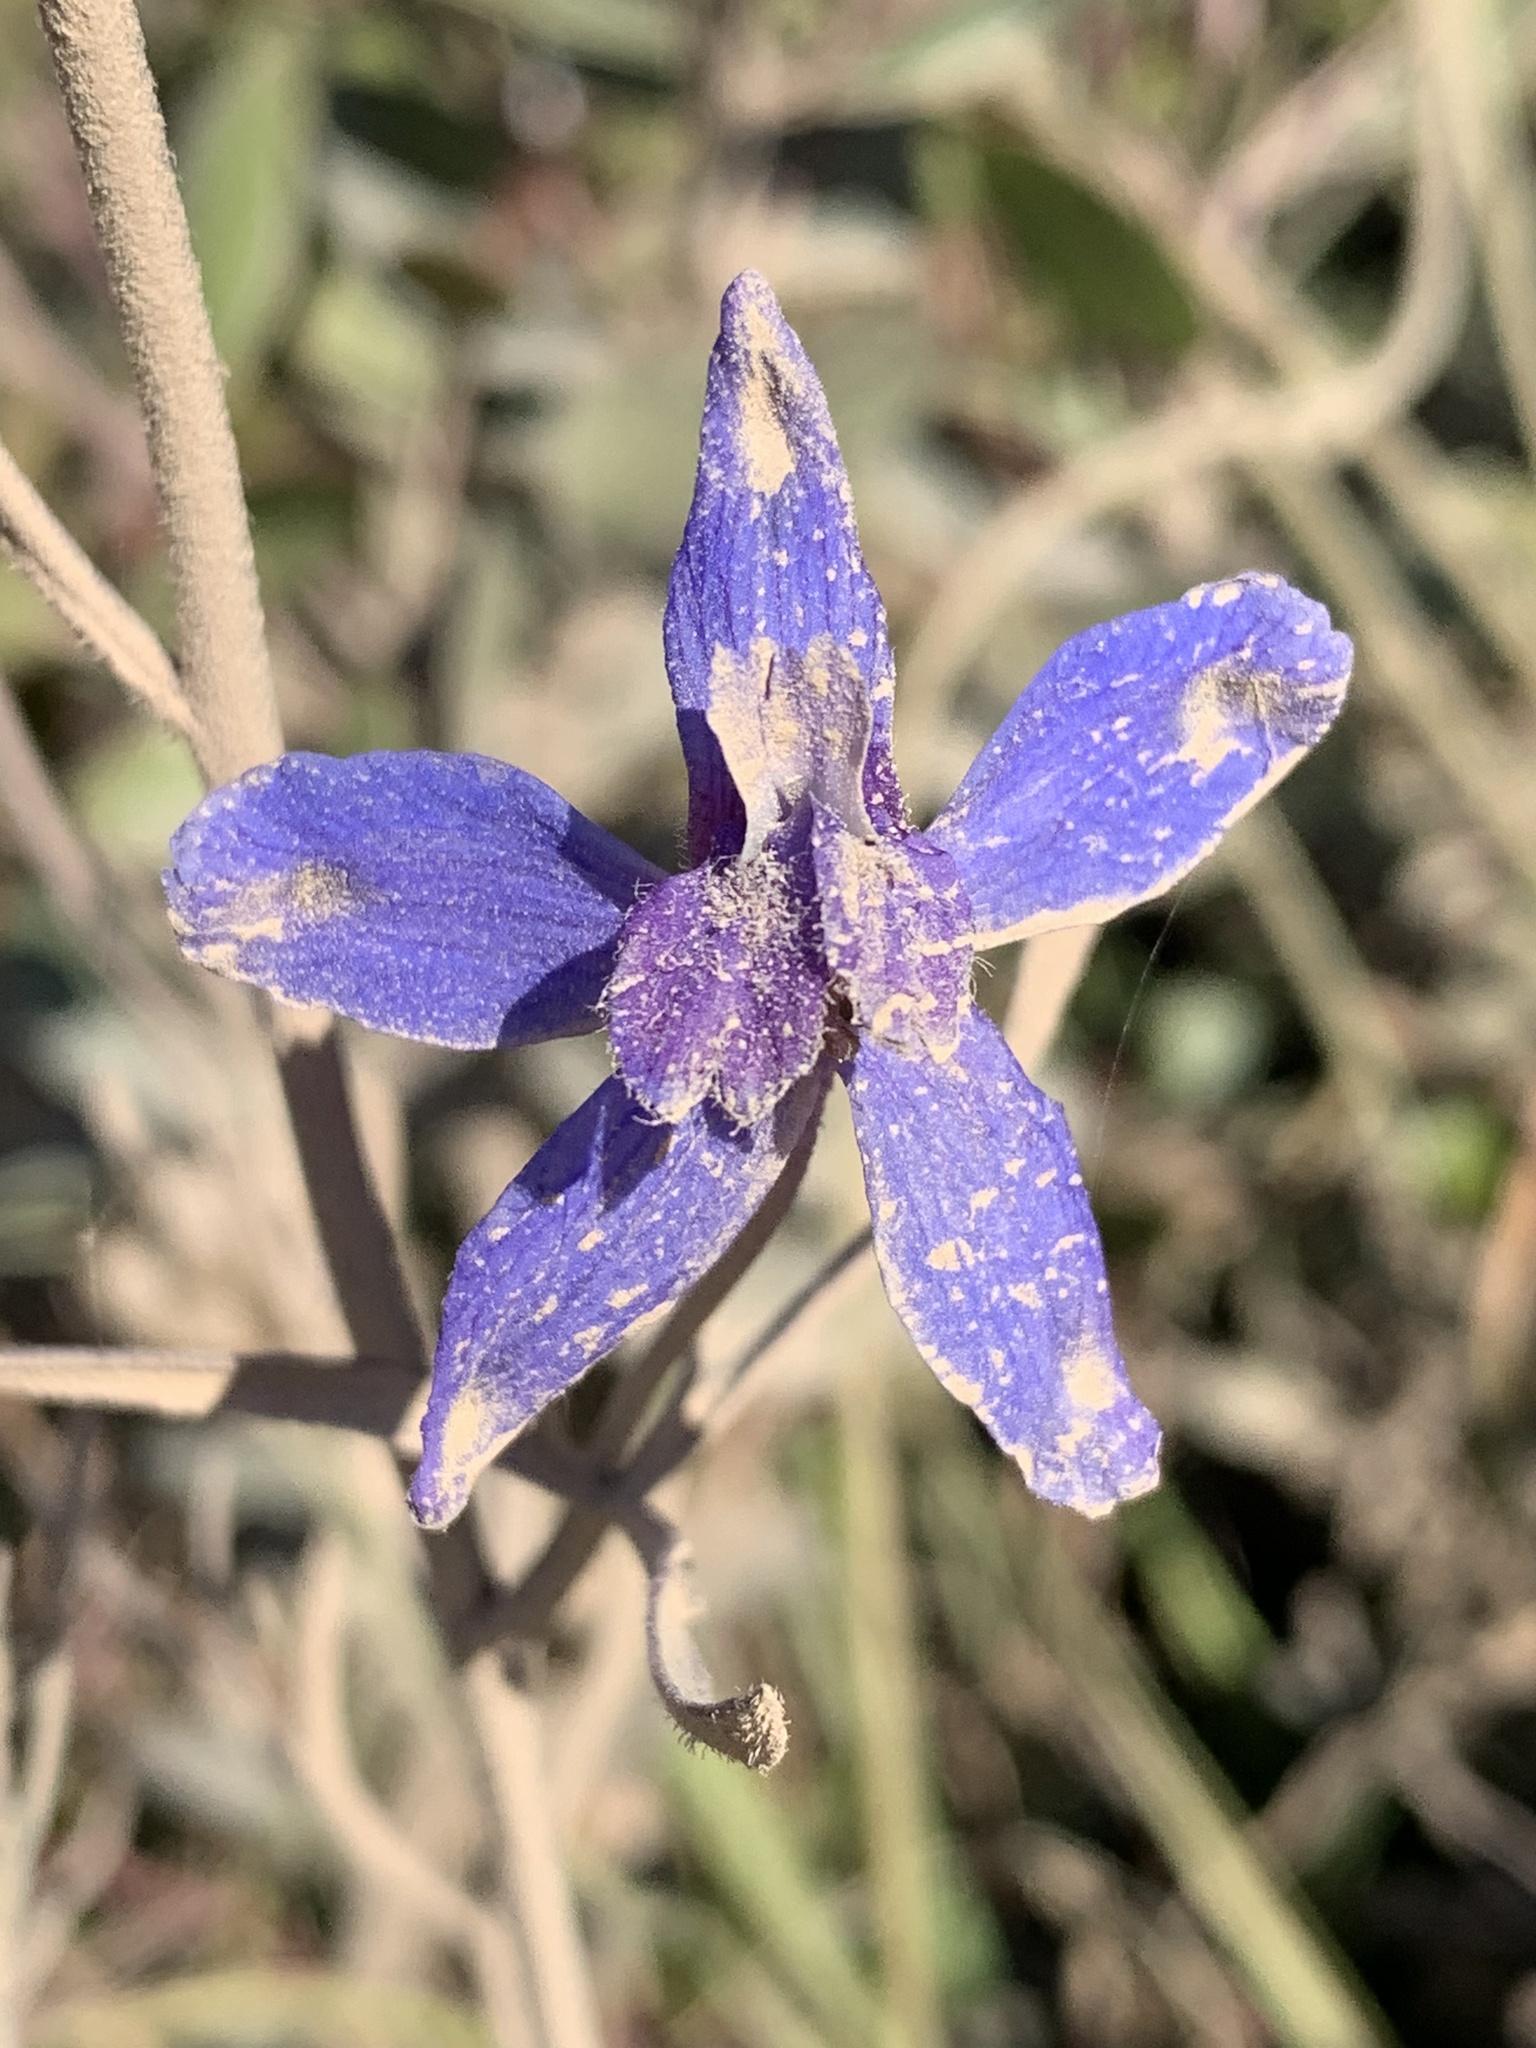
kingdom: Plantae
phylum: Tracheophyta
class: Magnoliopsida
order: Ranunculales
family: Ranunculaceae
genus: Delphinium
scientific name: Delphinium parryi
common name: Parry's larkspur
